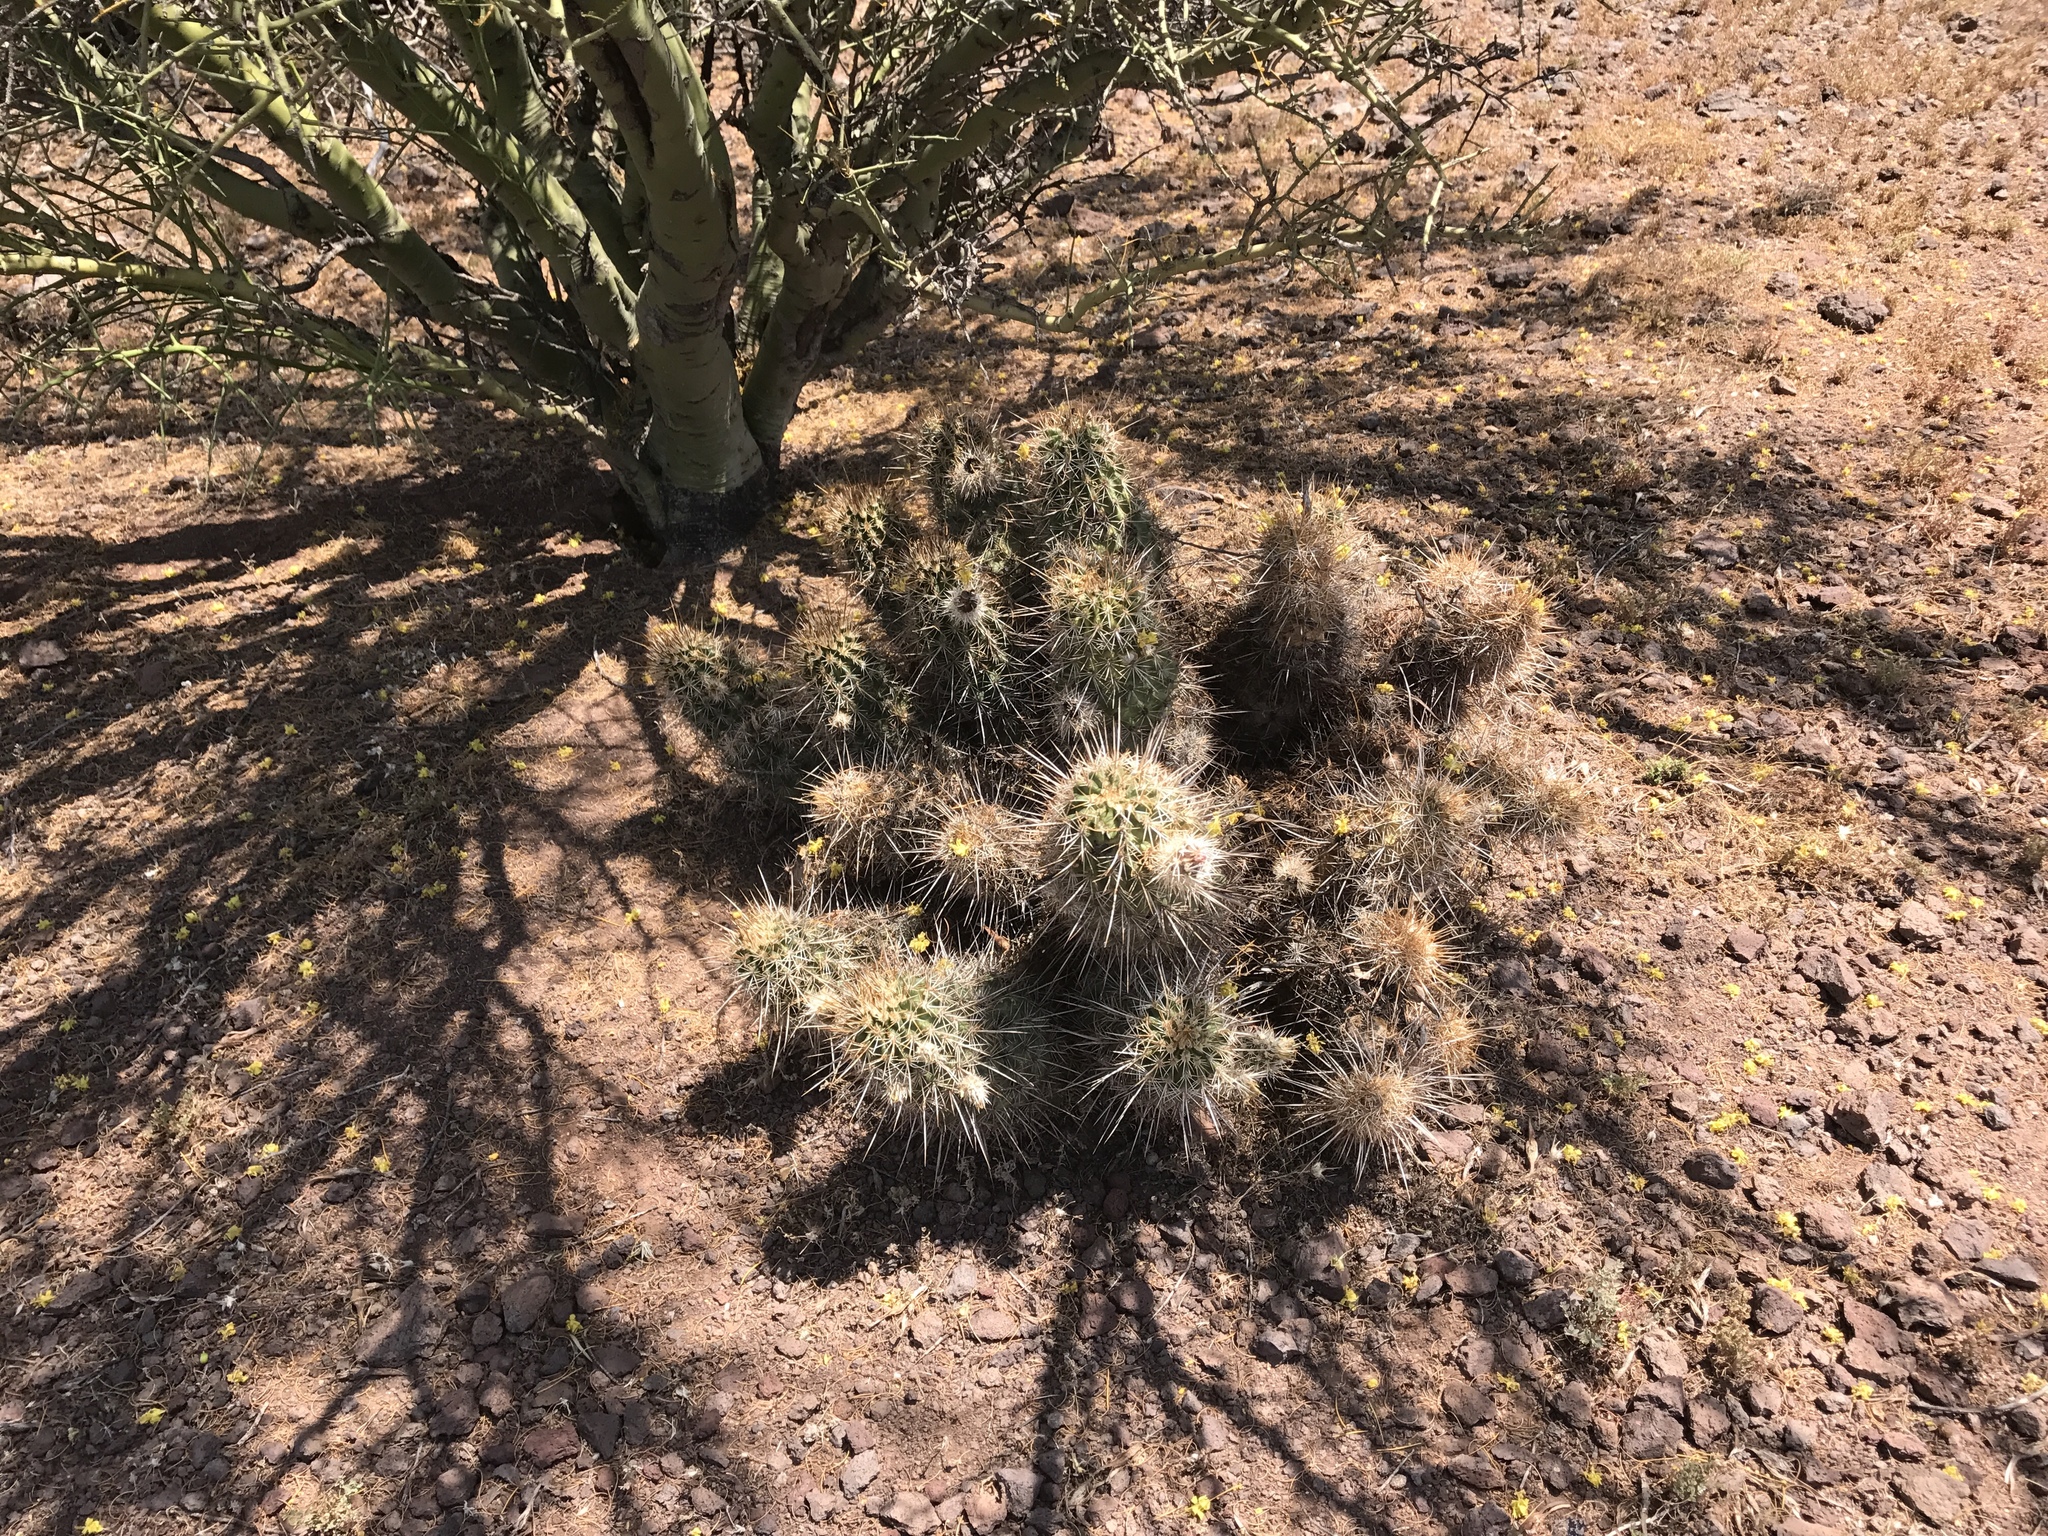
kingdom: Plantae
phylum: Tracheophyta
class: Magnoliopsida
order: Caryophyllales
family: Cactaceae
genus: Echinocereus
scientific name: Echinocereus fasciculatus
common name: Bundle hedgehog
